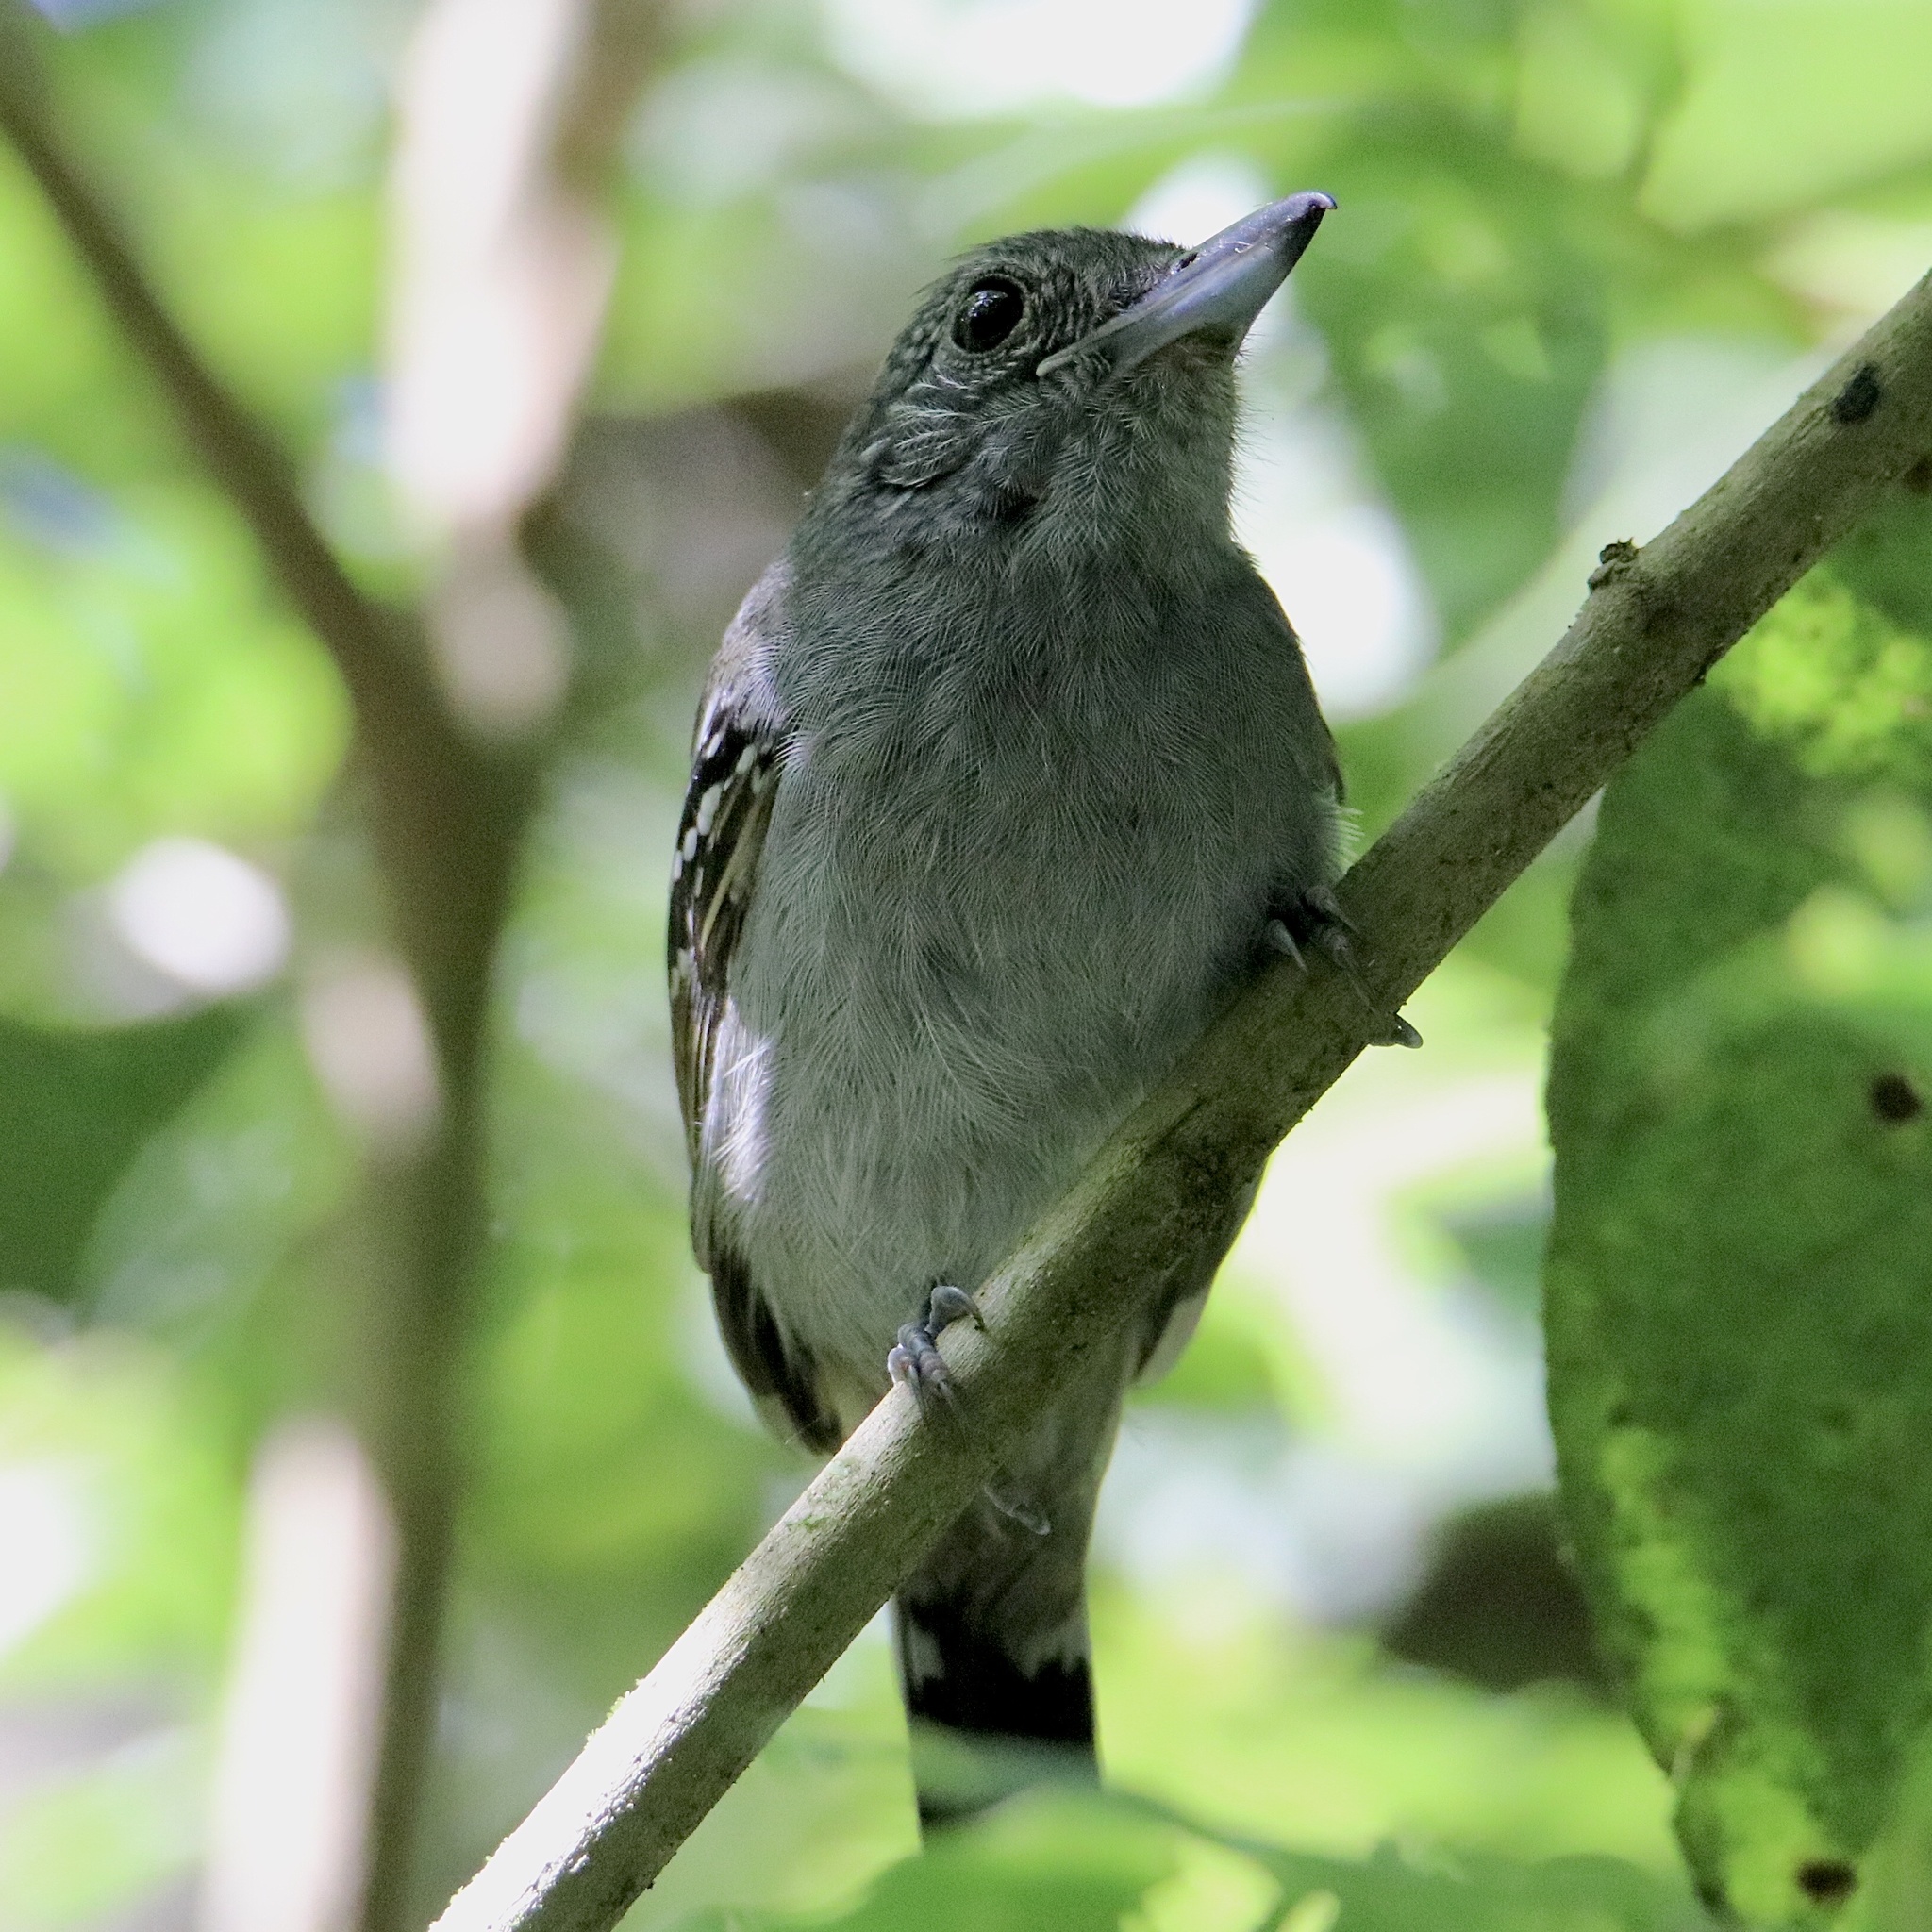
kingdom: Animalia
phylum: Chordata
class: Aves
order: Passeriformes
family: Thamnophilidae
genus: Thamnophilus
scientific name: Thamnophilus atrinucha
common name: Black-crowned antshrike
